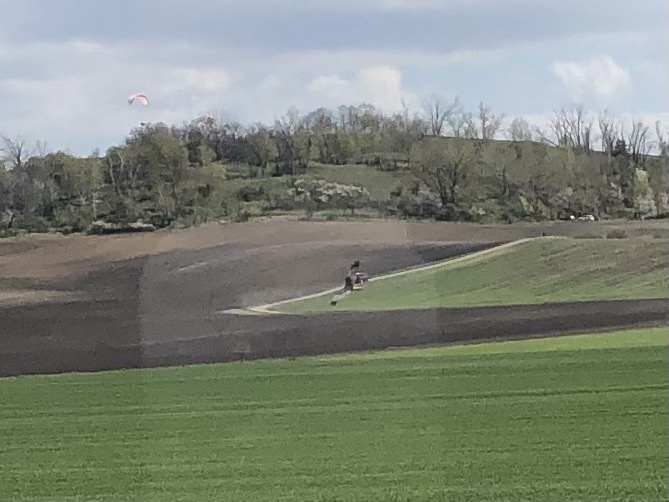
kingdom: Animalia
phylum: Chordata
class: Aves
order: Accipitriformes
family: Accipitridae
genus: Circus
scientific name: Circus aeruginosus
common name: Western marsh harrier
